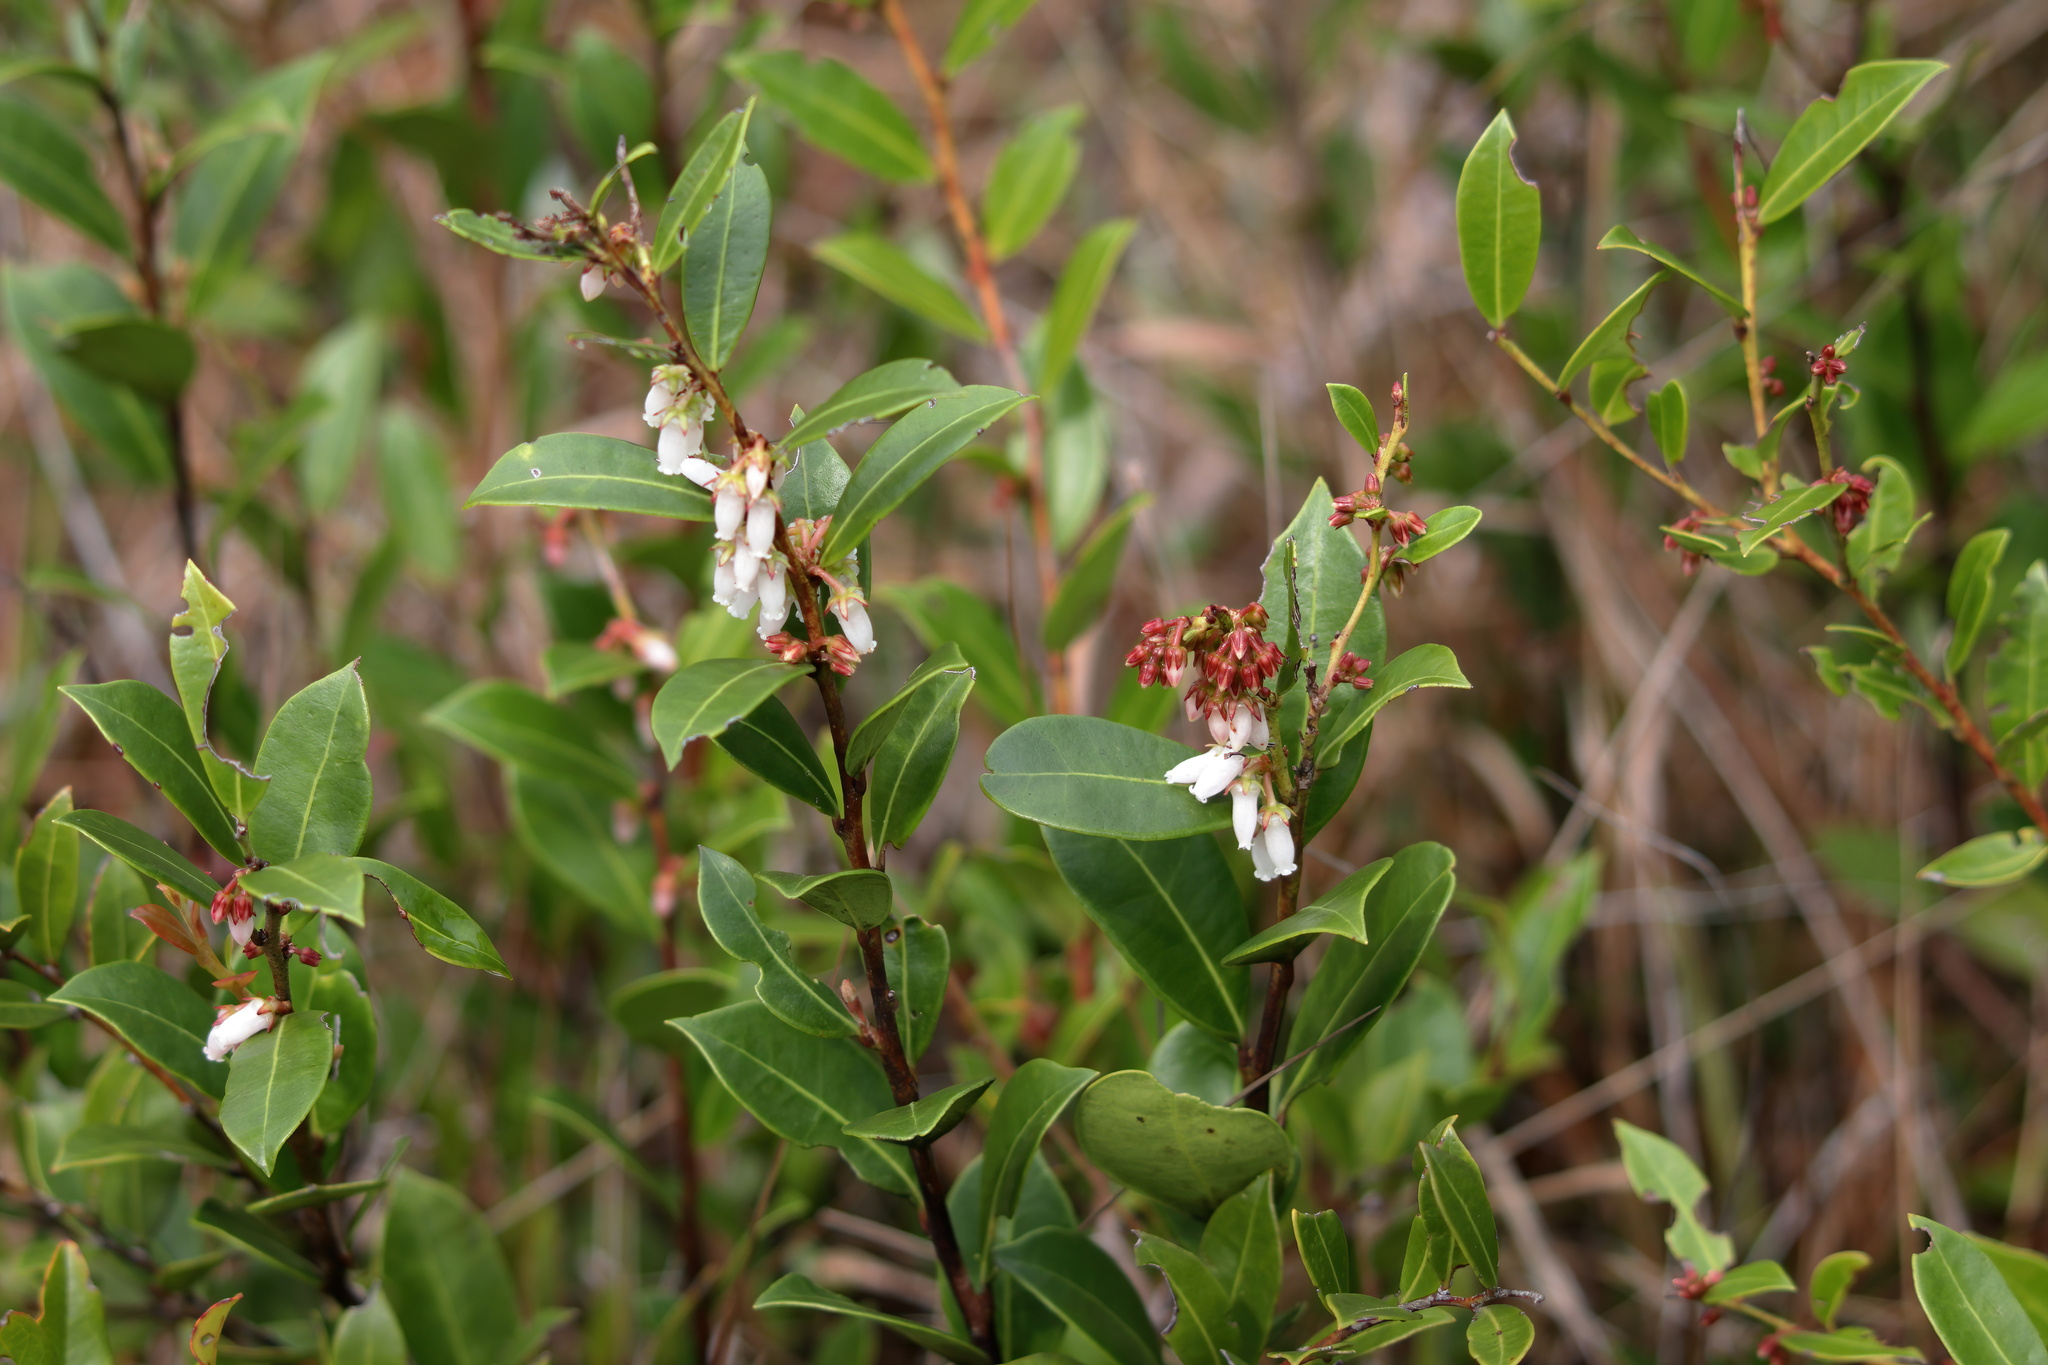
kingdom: Plantae
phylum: Tracheophyta
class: Magnoliopsida
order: Ericales
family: Ericaceae
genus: Lyonia
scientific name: Lyonia lucida
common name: Fetterbush
